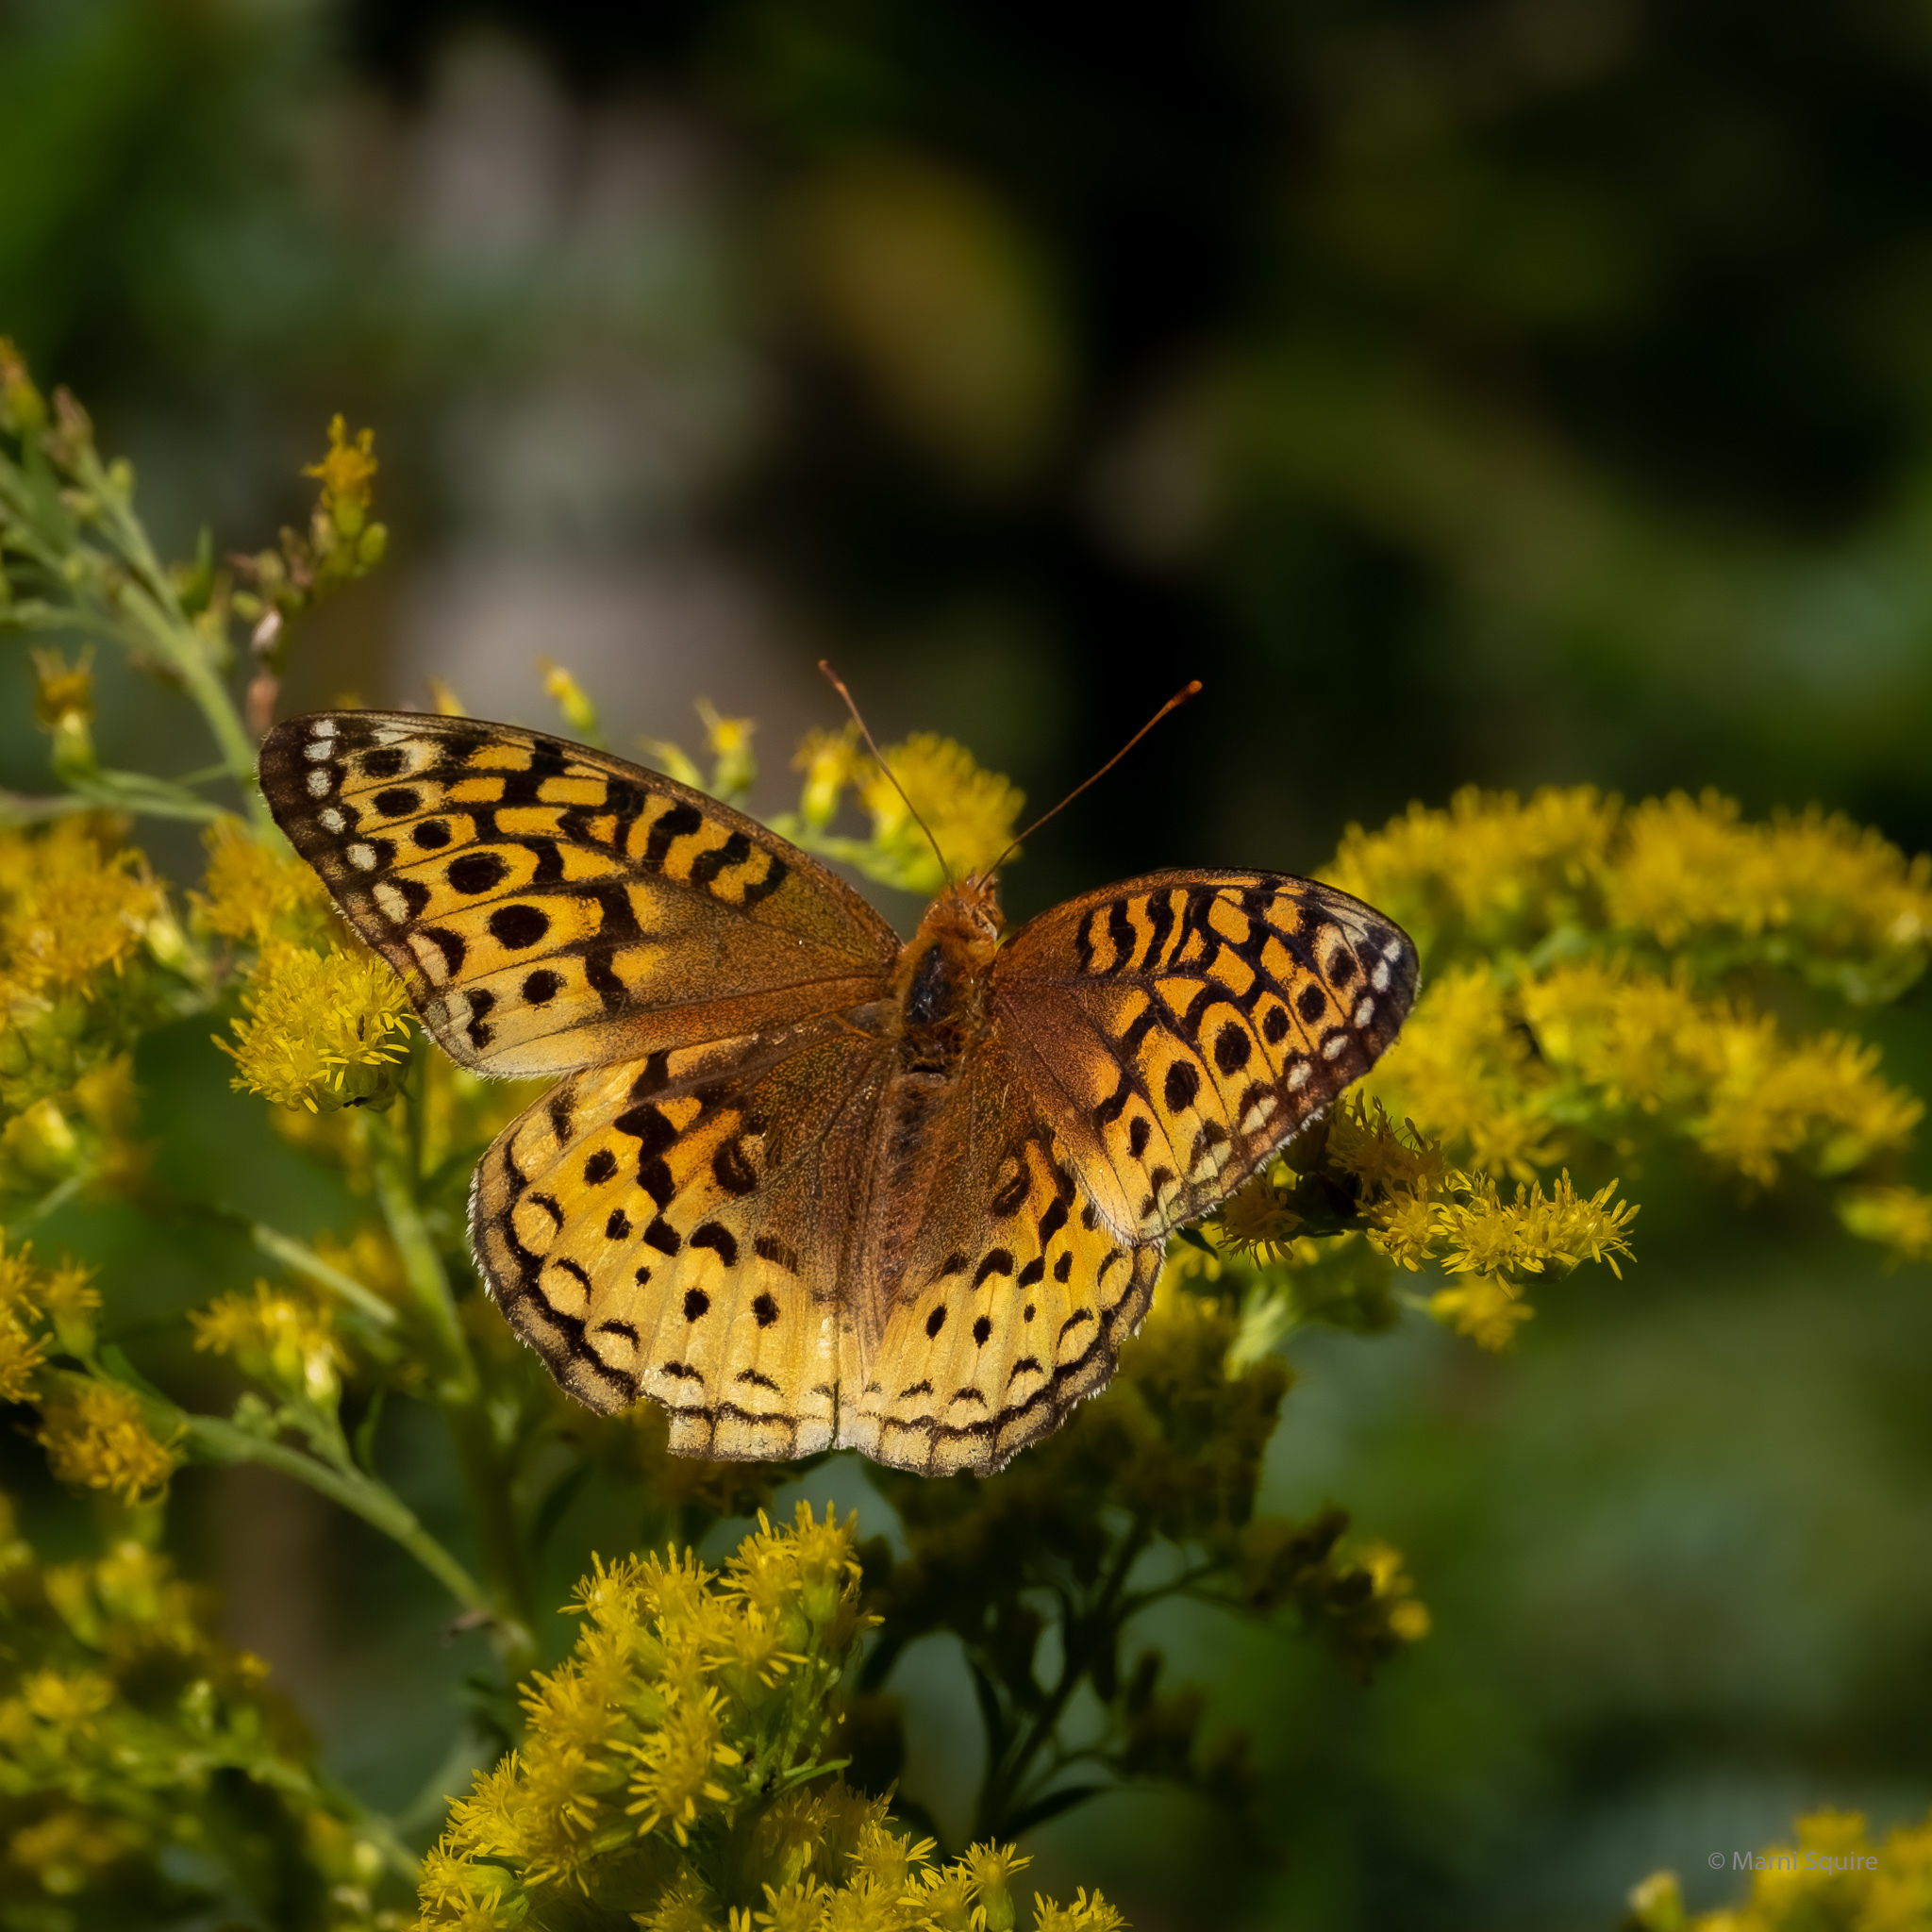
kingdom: Animalia
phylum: Arthropoda
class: Insecta
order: Lepidoptera
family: Nymphalidae
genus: Speyeria
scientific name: Speyeria cybele
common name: Great spangled fritillary
